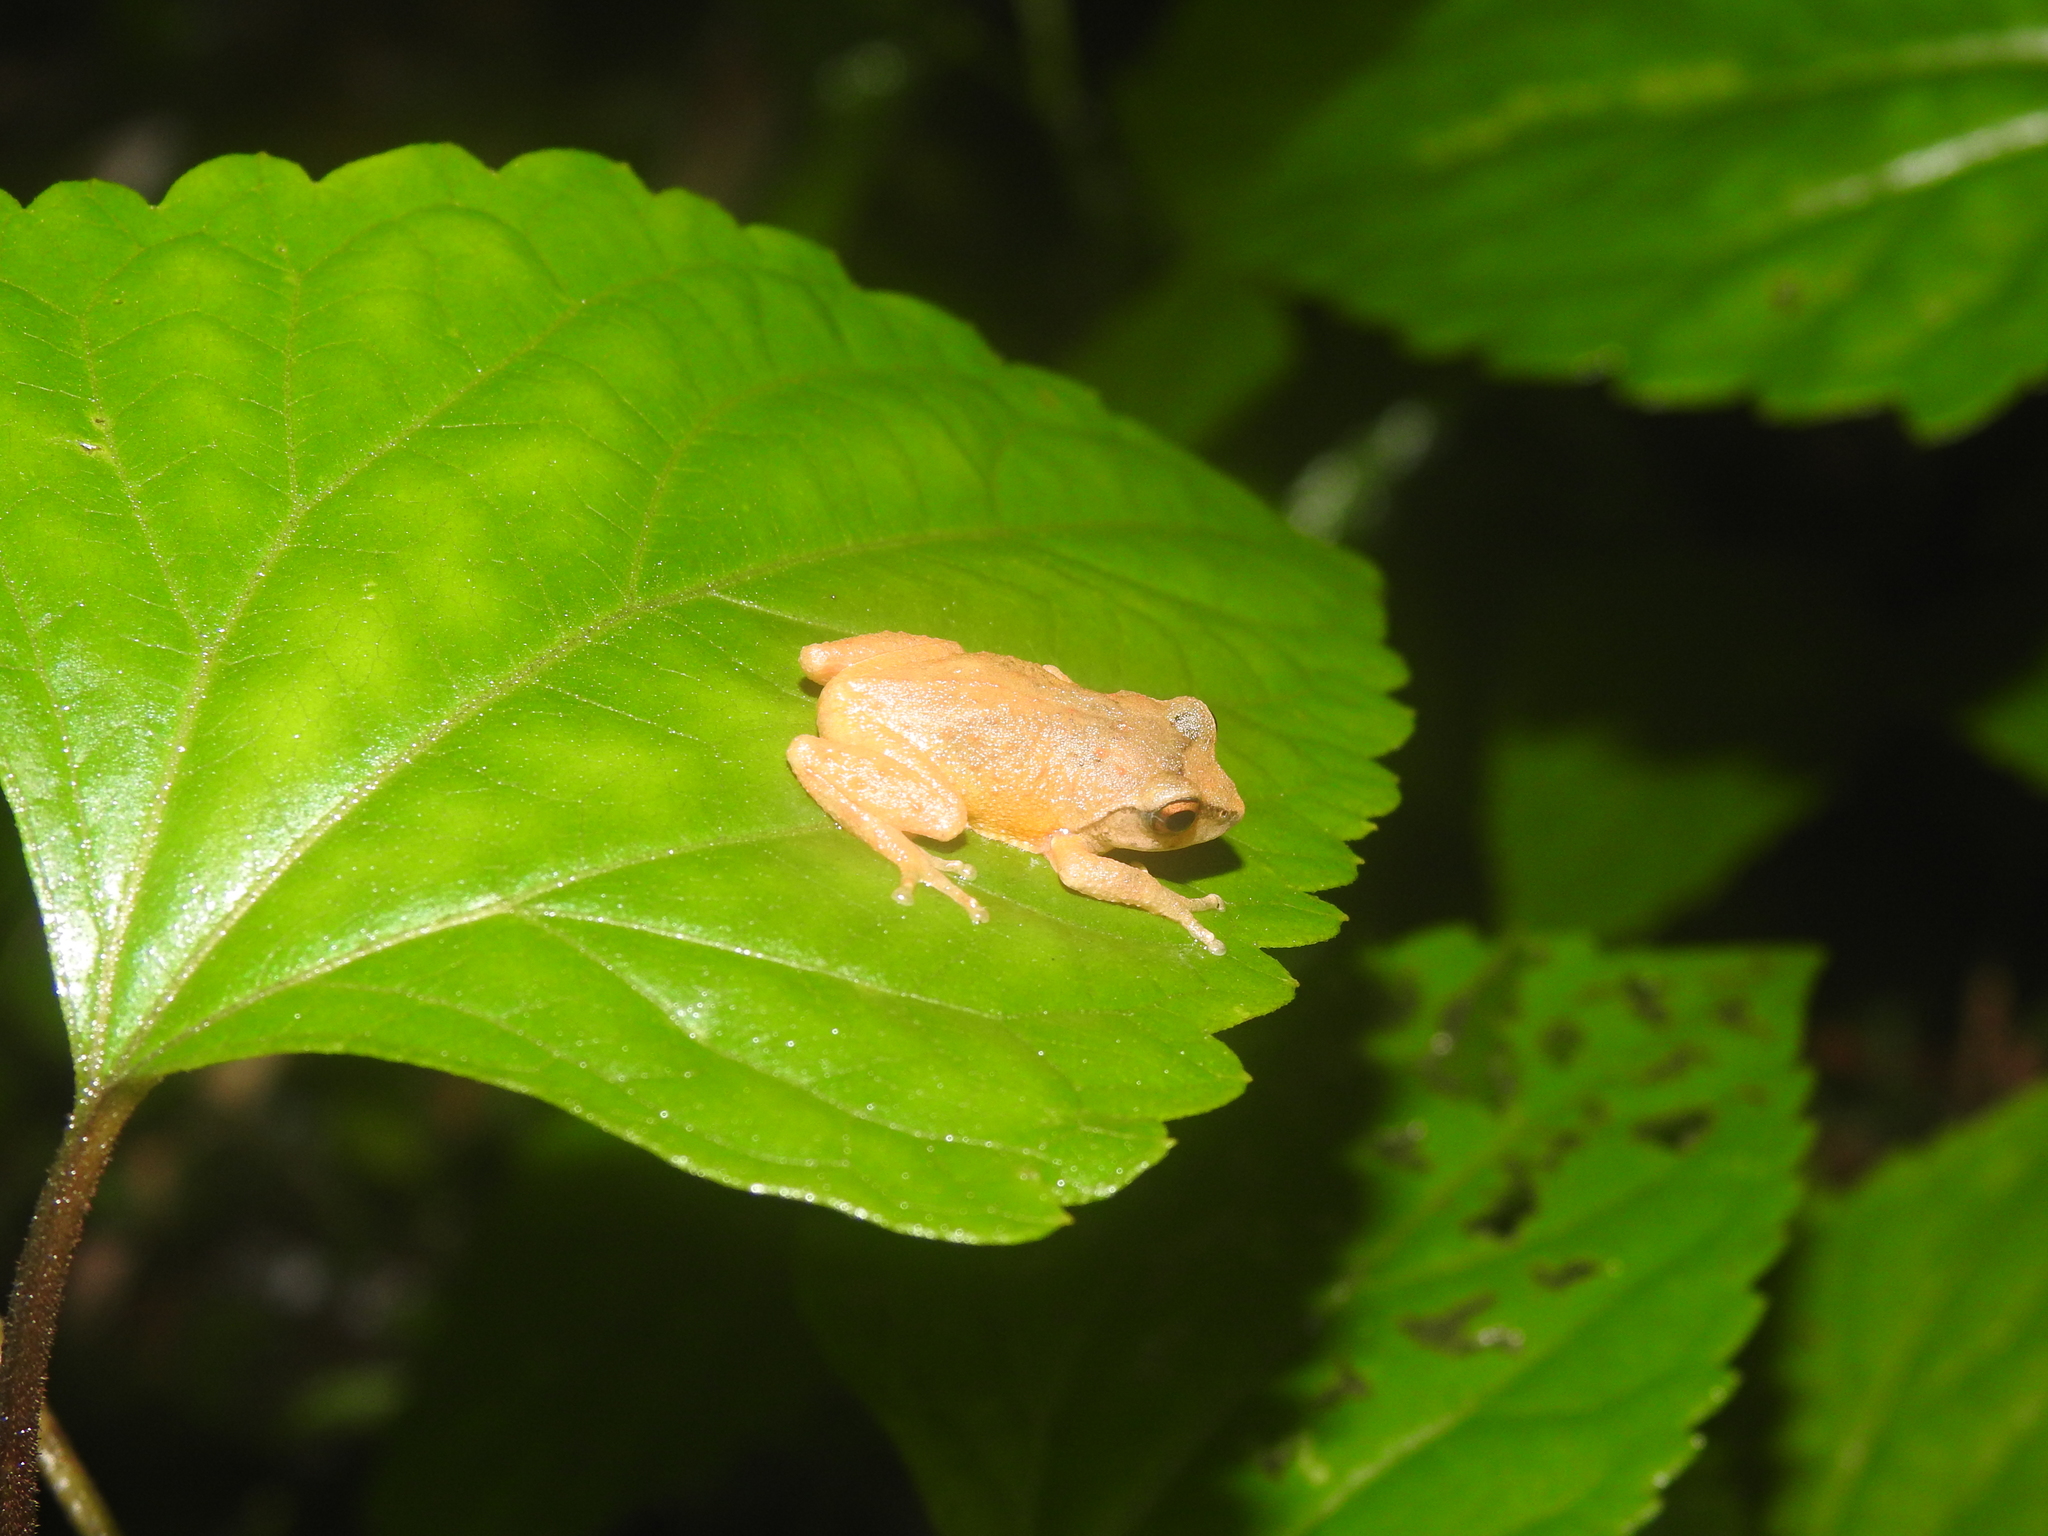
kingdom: Animalia
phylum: Chordata
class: Amphibia
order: Anura
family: Rhacophoridae
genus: Raorchestes
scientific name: Raorchestes dubois
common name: Koadaikanal bush frog
